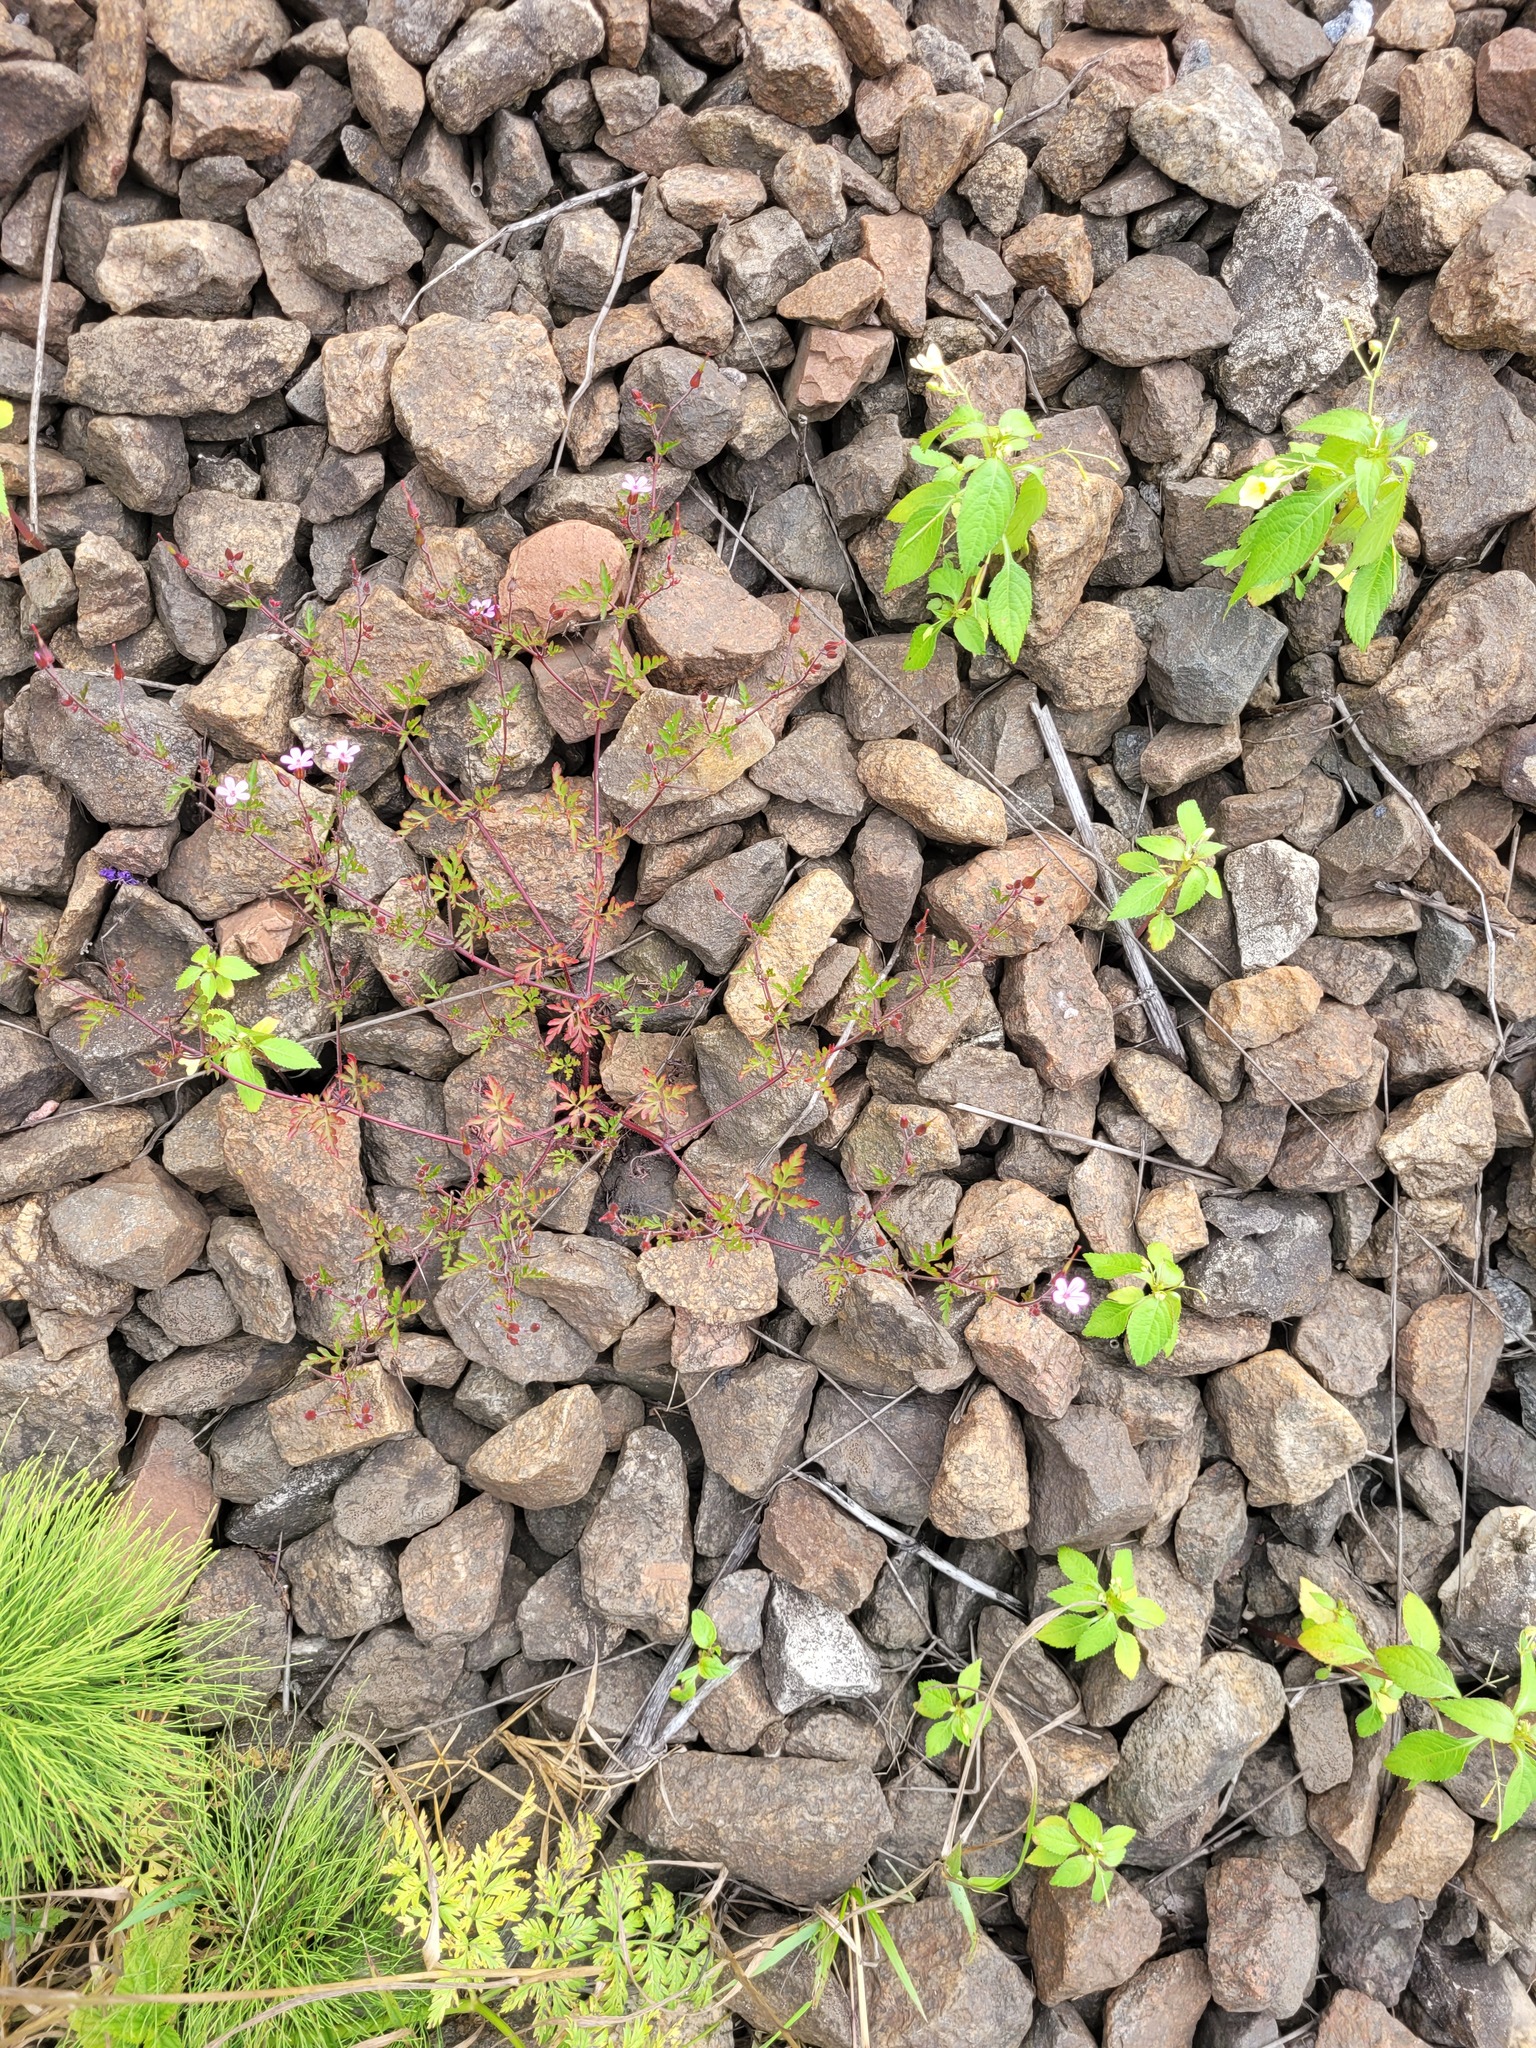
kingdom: Plantae
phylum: Tracheophyta
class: Magnoliopsida
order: Geraniales
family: Geraniaceae
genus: Geranium
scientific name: Geranium robertianum
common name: Herb-robert
